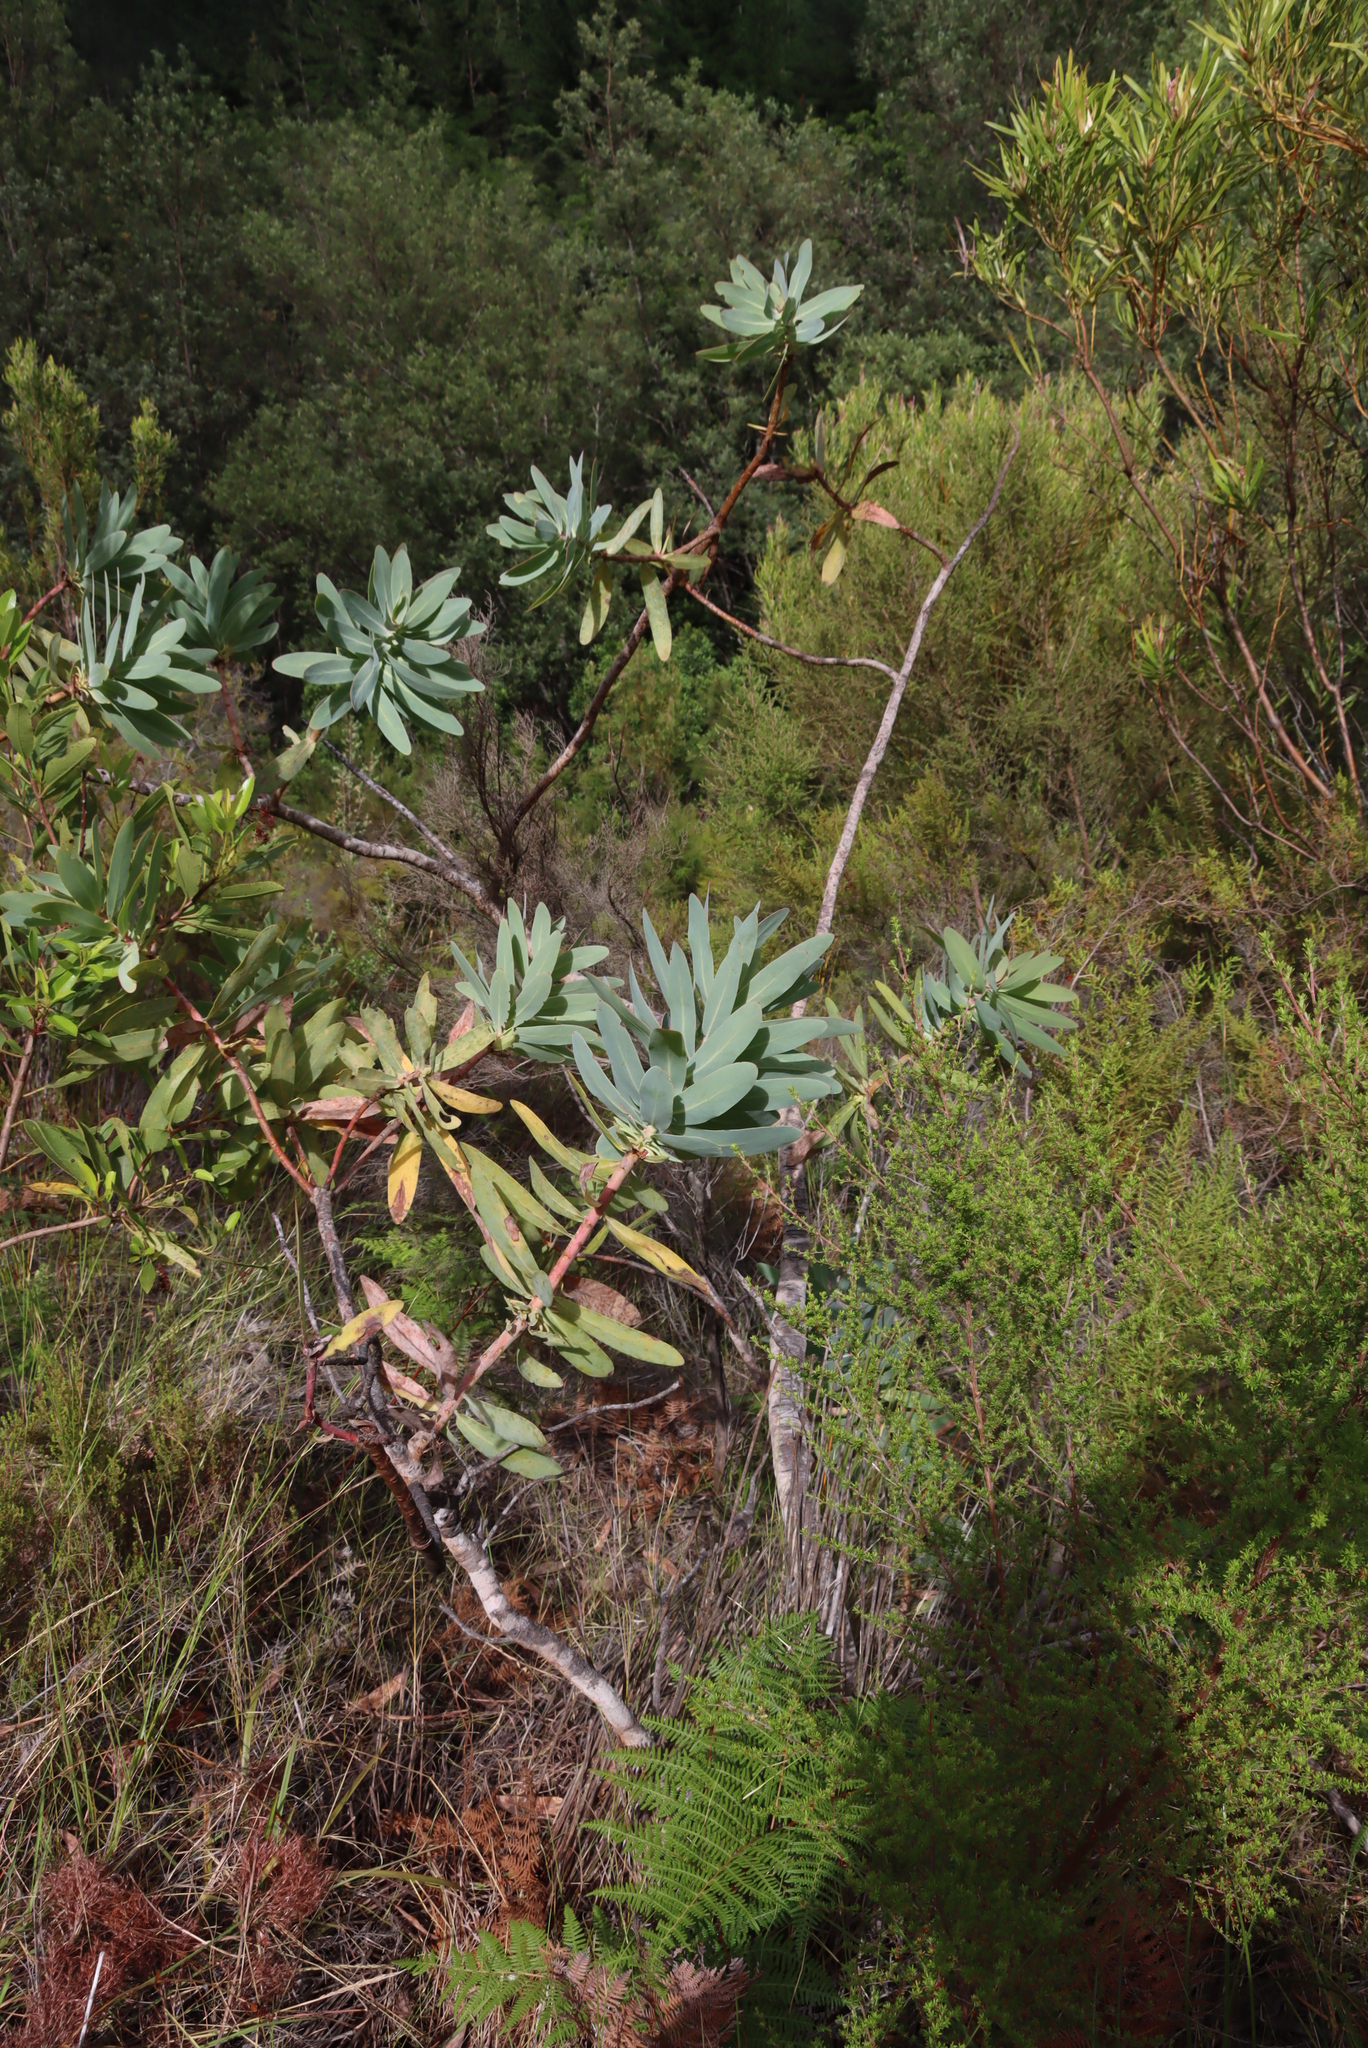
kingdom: Plantae
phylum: Tracheophyta
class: Magnoliopsida
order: Proteales
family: Proteaceae
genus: Protea
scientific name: Protea nitida
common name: Tree protea
